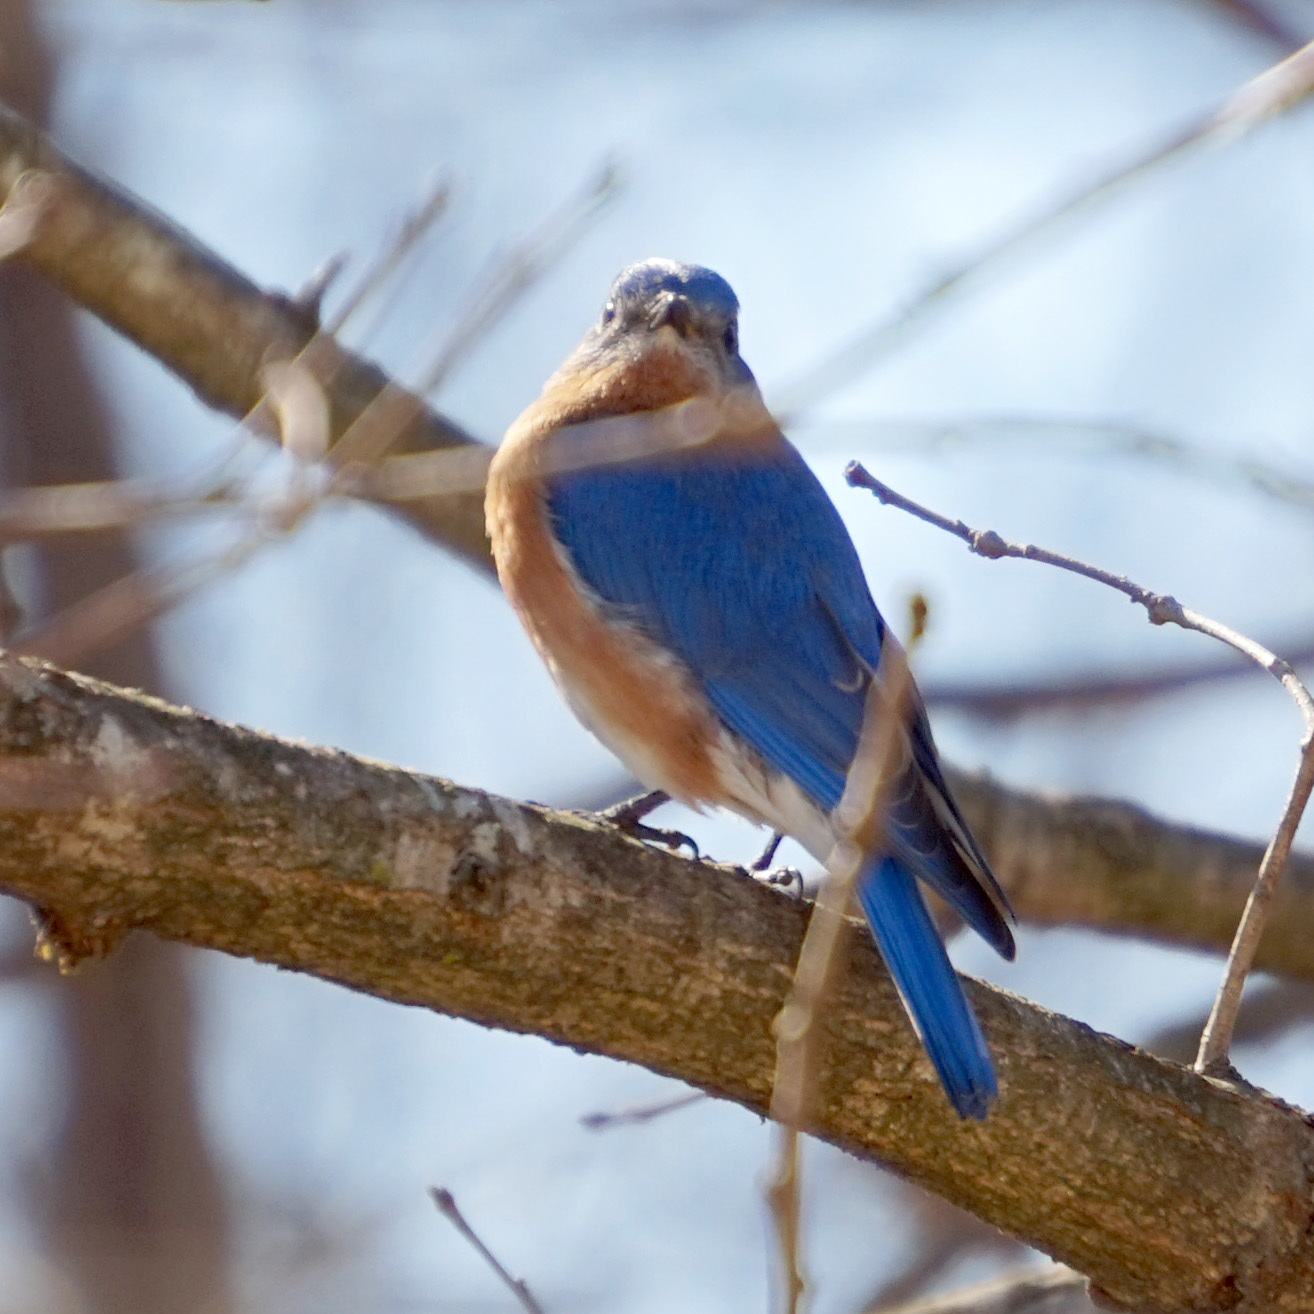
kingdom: Animalia
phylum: Chordata
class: Aves
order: Passeriformes
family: Turdidae
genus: Sialia
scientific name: Sialia sialis
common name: Eastern bluebird
